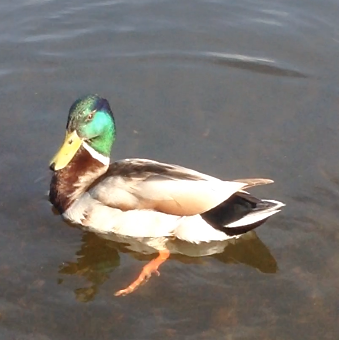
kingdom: Animalia
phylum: Chordata
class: Aves
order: Anseriformes
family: Anatidae
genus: Anas
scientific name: Anas platyrhynchos
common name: Mallard
